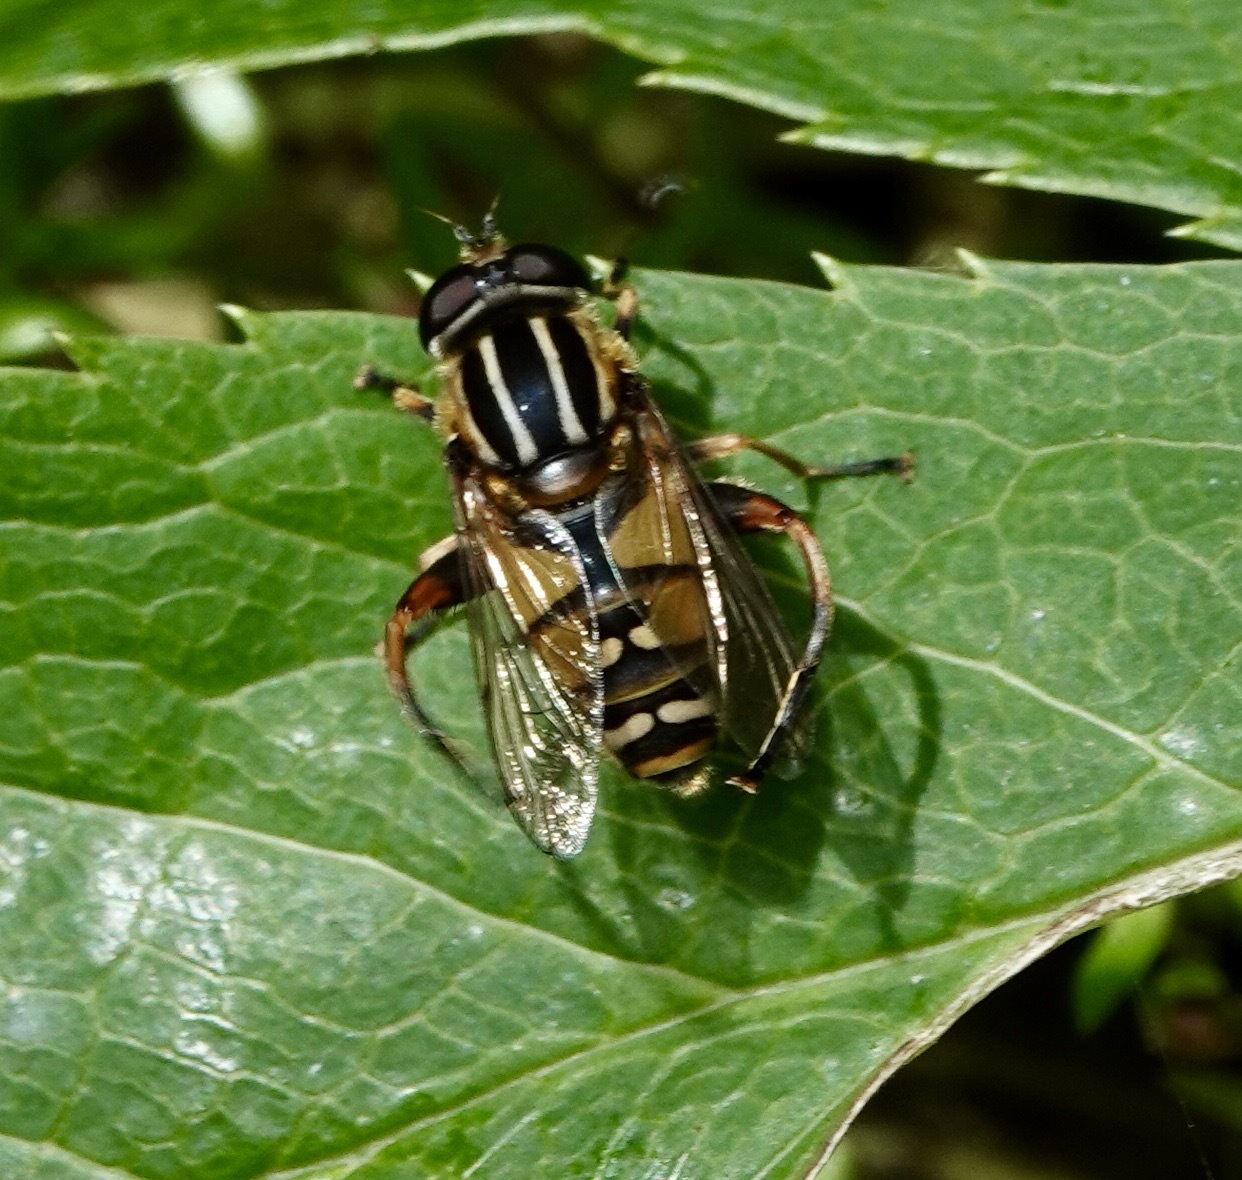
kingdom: Animalia
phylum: Arthropoda
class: Insecta
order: Diptera
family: Syrphidae
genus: Helophilus
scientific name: Helophilus pendulus
